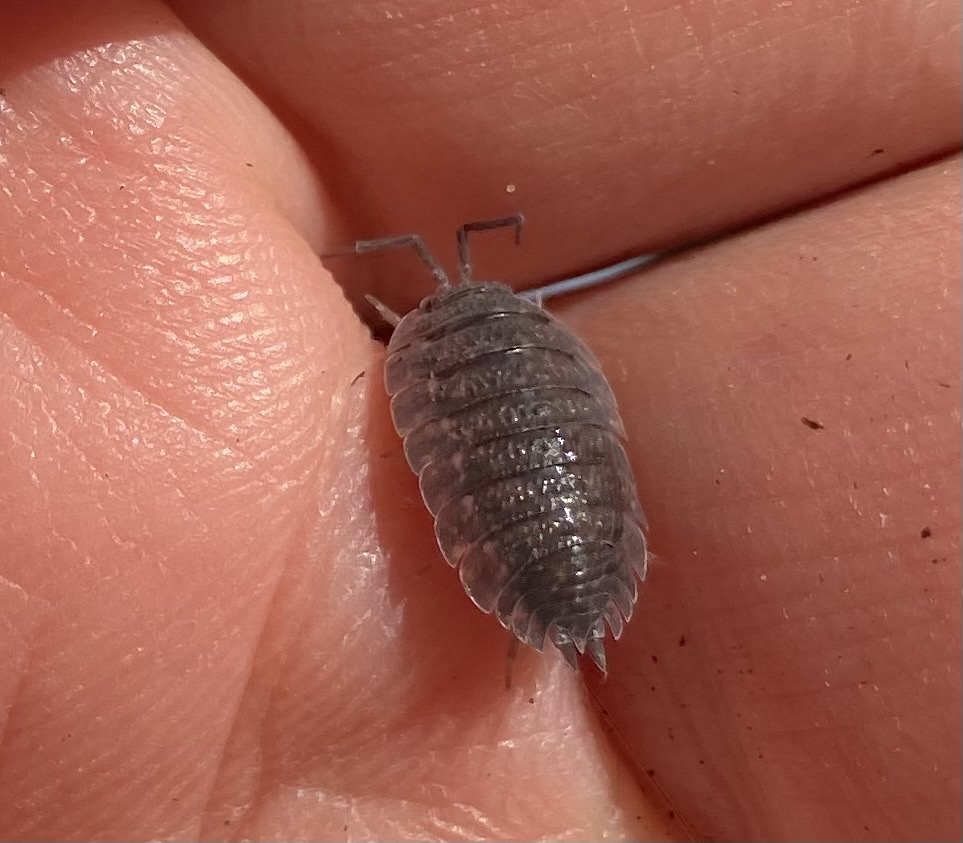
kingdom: Animalia
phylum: Arthropoda
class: Malacostraca
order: Isopoda
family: Porcellionidae
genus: Porcellio
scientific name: Porcellio scaber
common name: Common rough woodlouse
